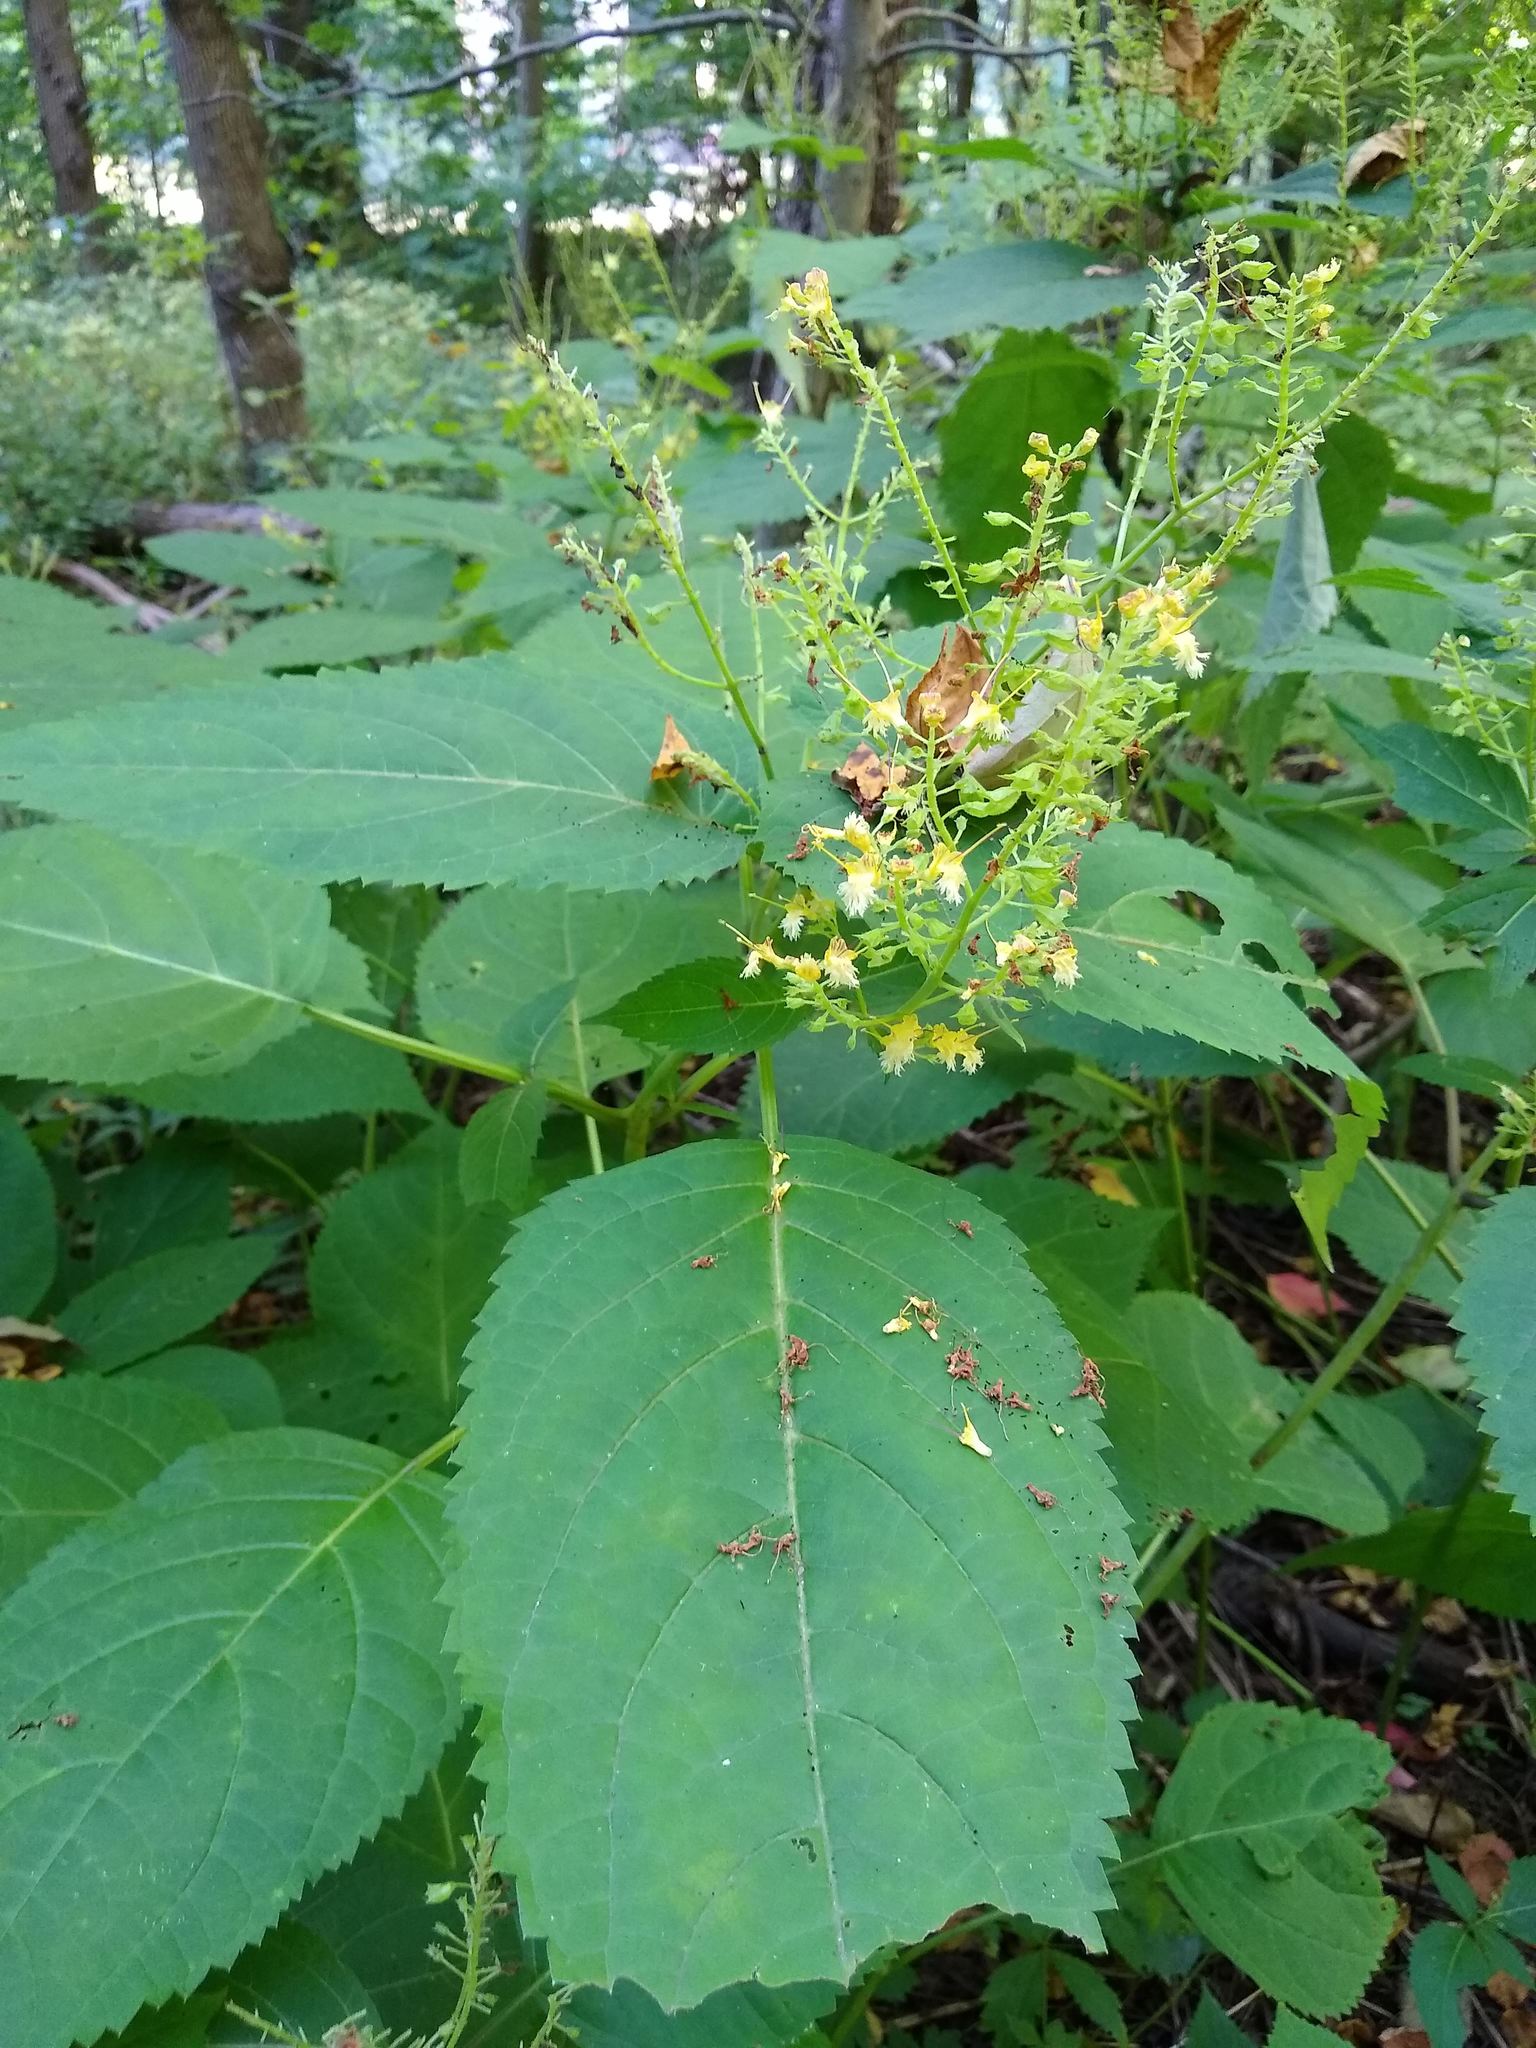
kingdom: Plantae
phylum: Tracheophyta
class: Magnoliopsida
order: Lamiales
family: Lamiaceae
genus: Collinsonia
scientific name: Collinsonia canadensis
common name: Northern horsebalm
